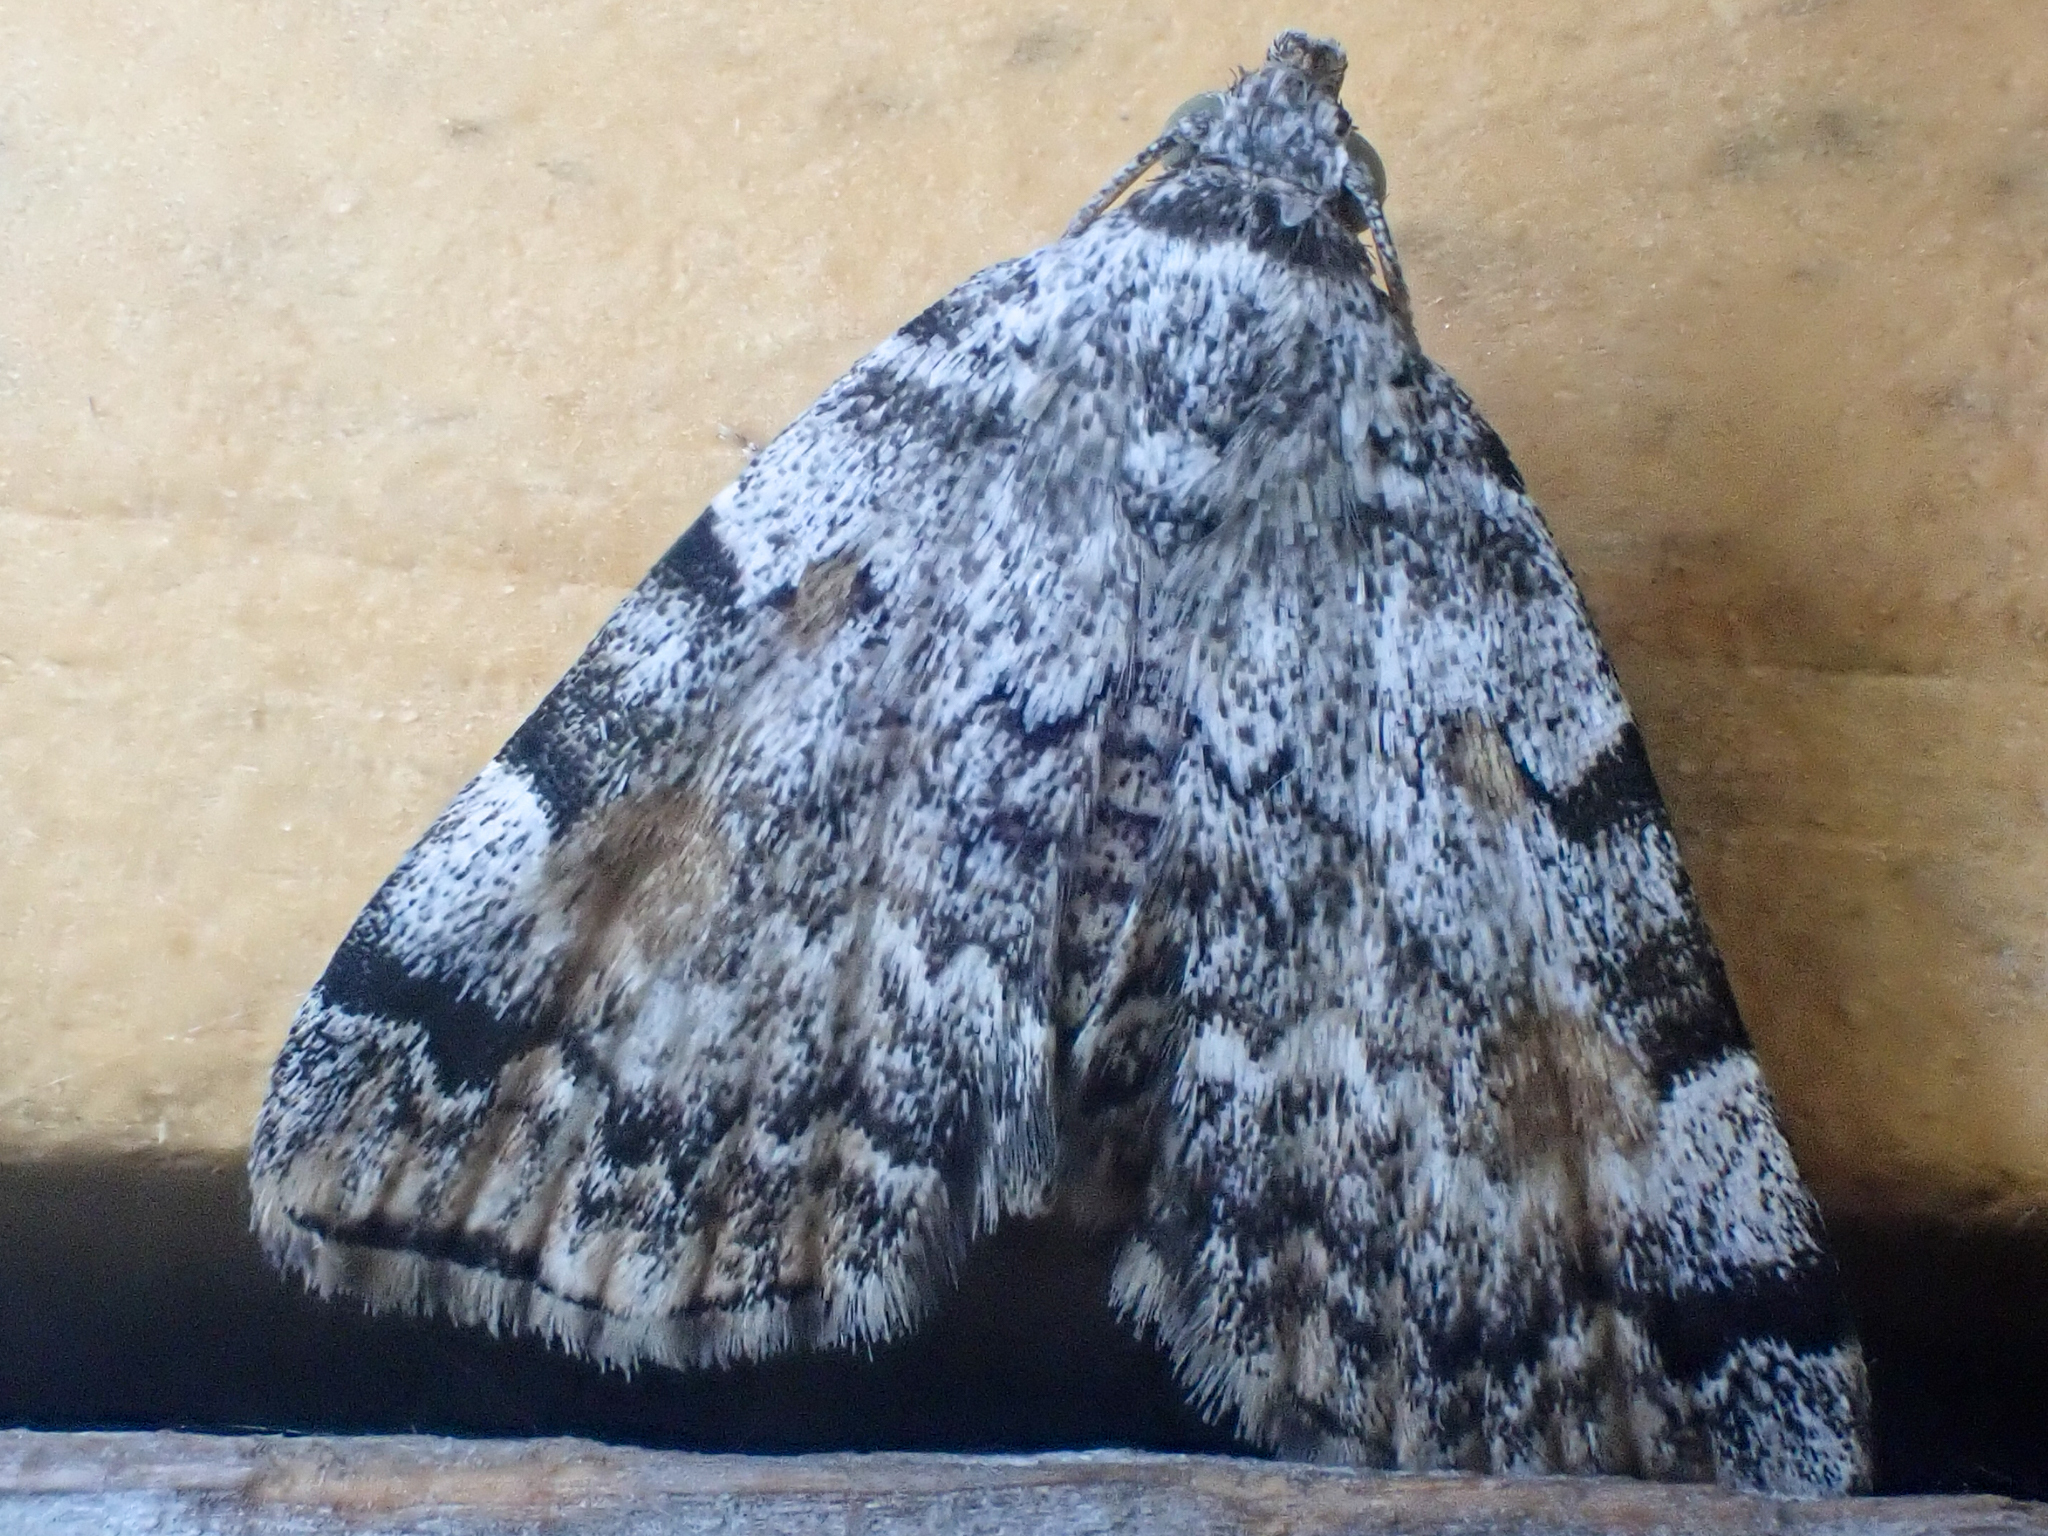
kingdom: Animalia
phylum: Arthropoda
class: Insecta
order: Lepidoptera
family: Erebidae
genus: Idia
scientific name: Idia americalis
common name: American idia moth
